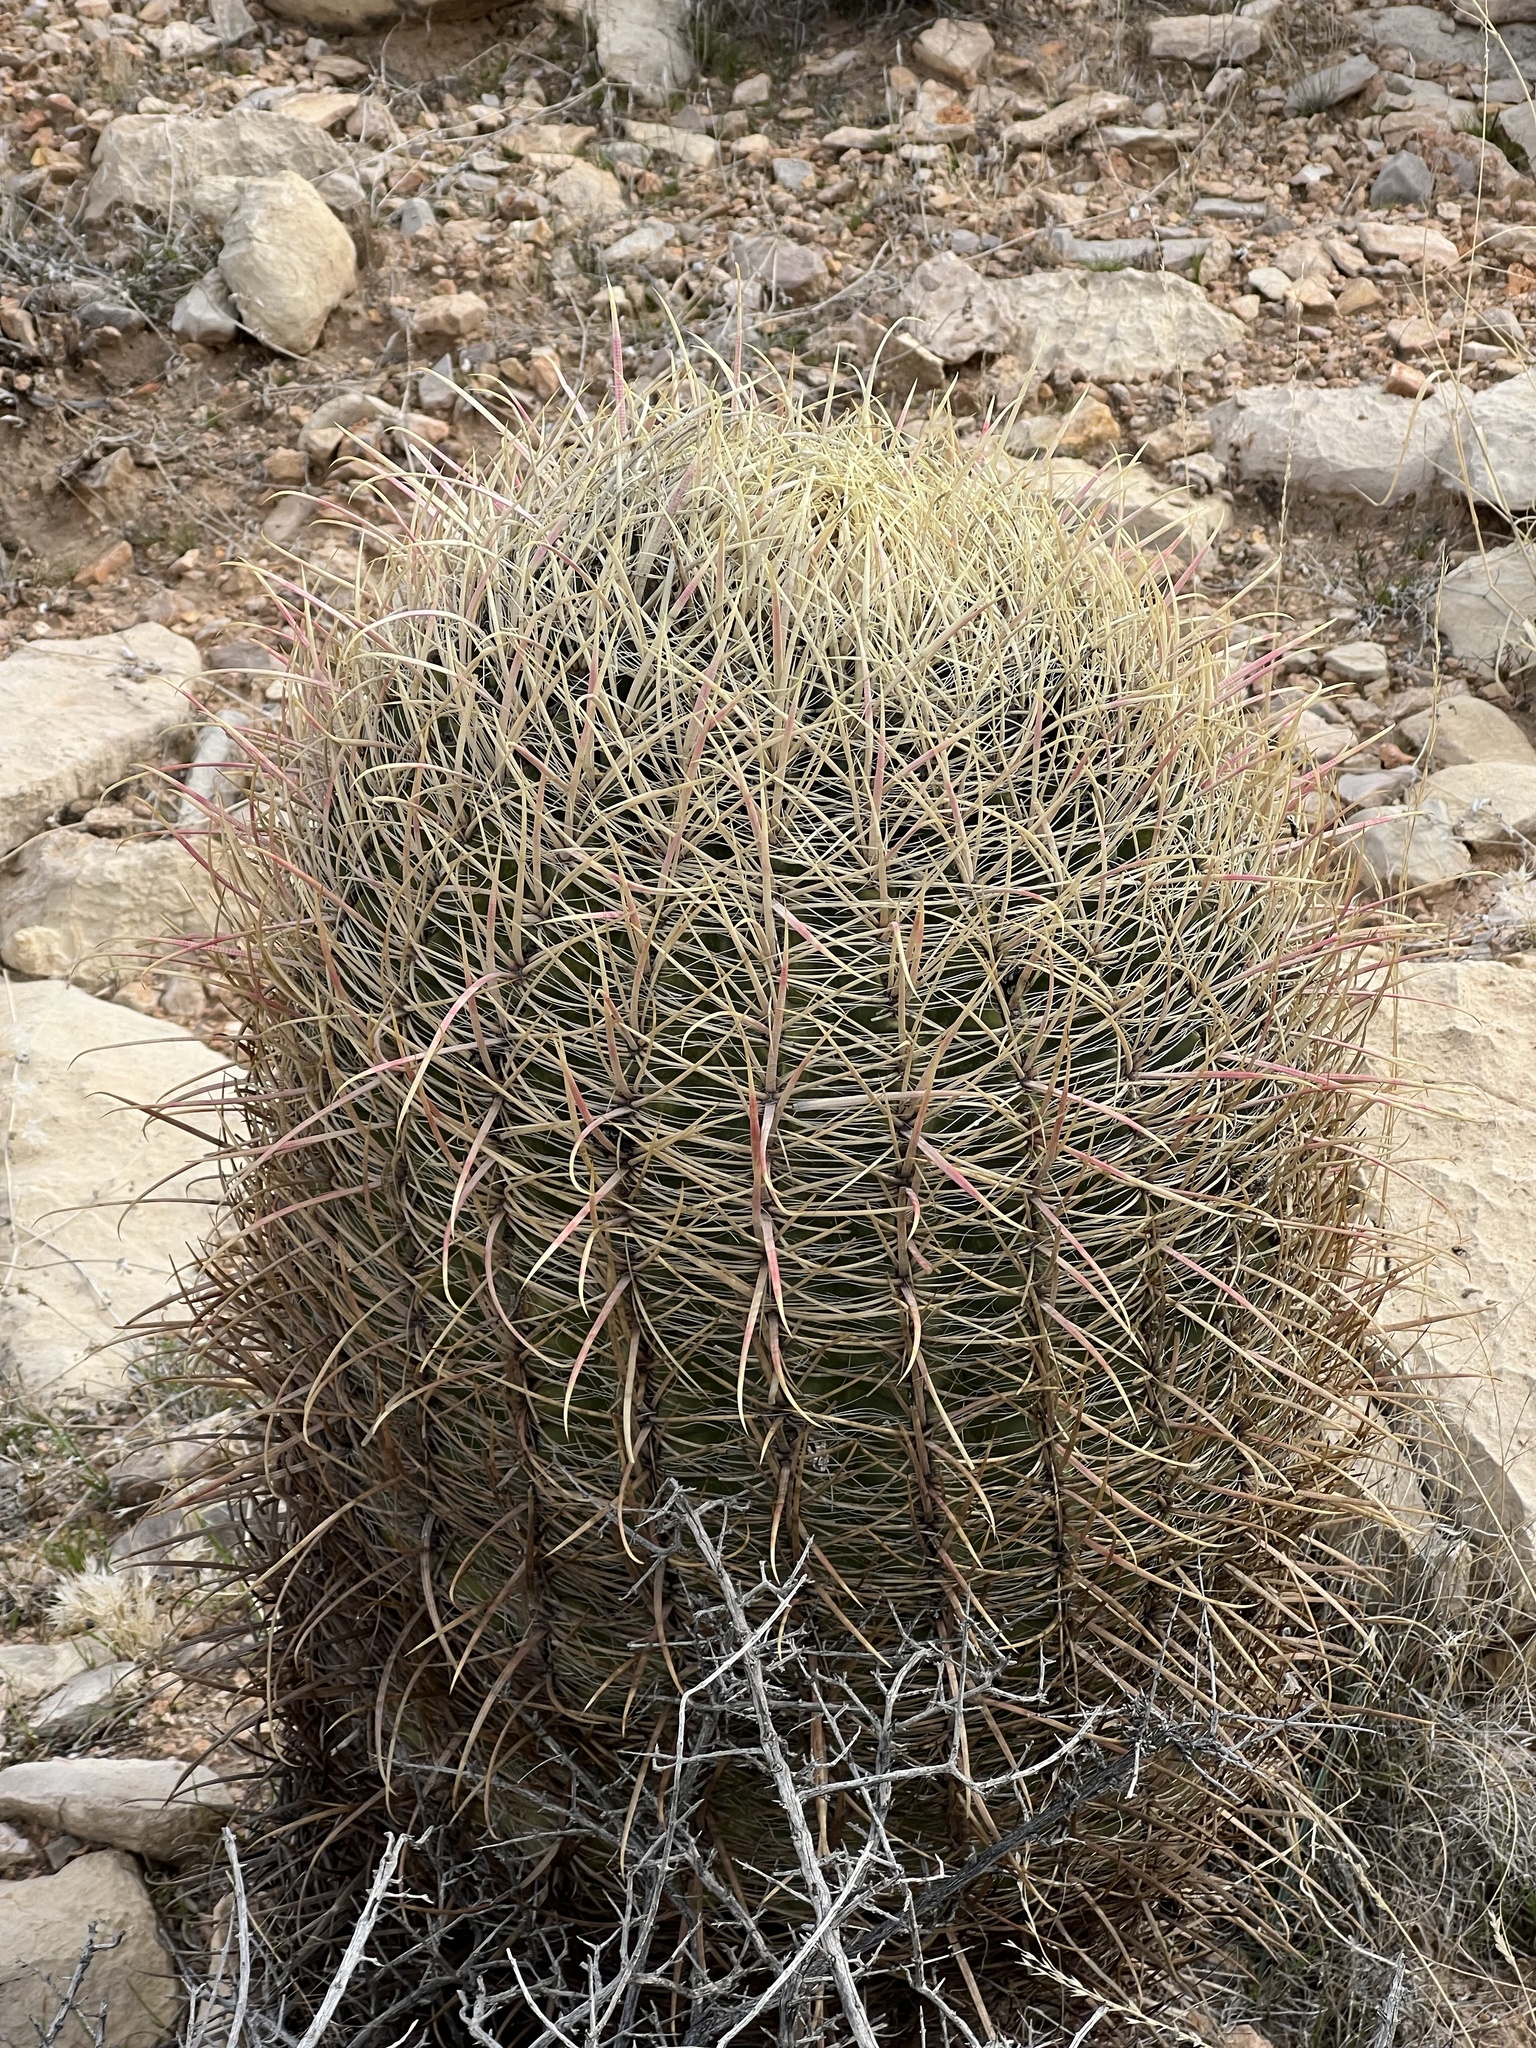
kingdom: Plantae
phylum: Tracheophyta
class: Magnoliopsida
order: Caryophyllales
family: Cactaceae
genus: Ferocactus
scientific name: Ferocactus cylindraceus
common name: California barrel cactus
